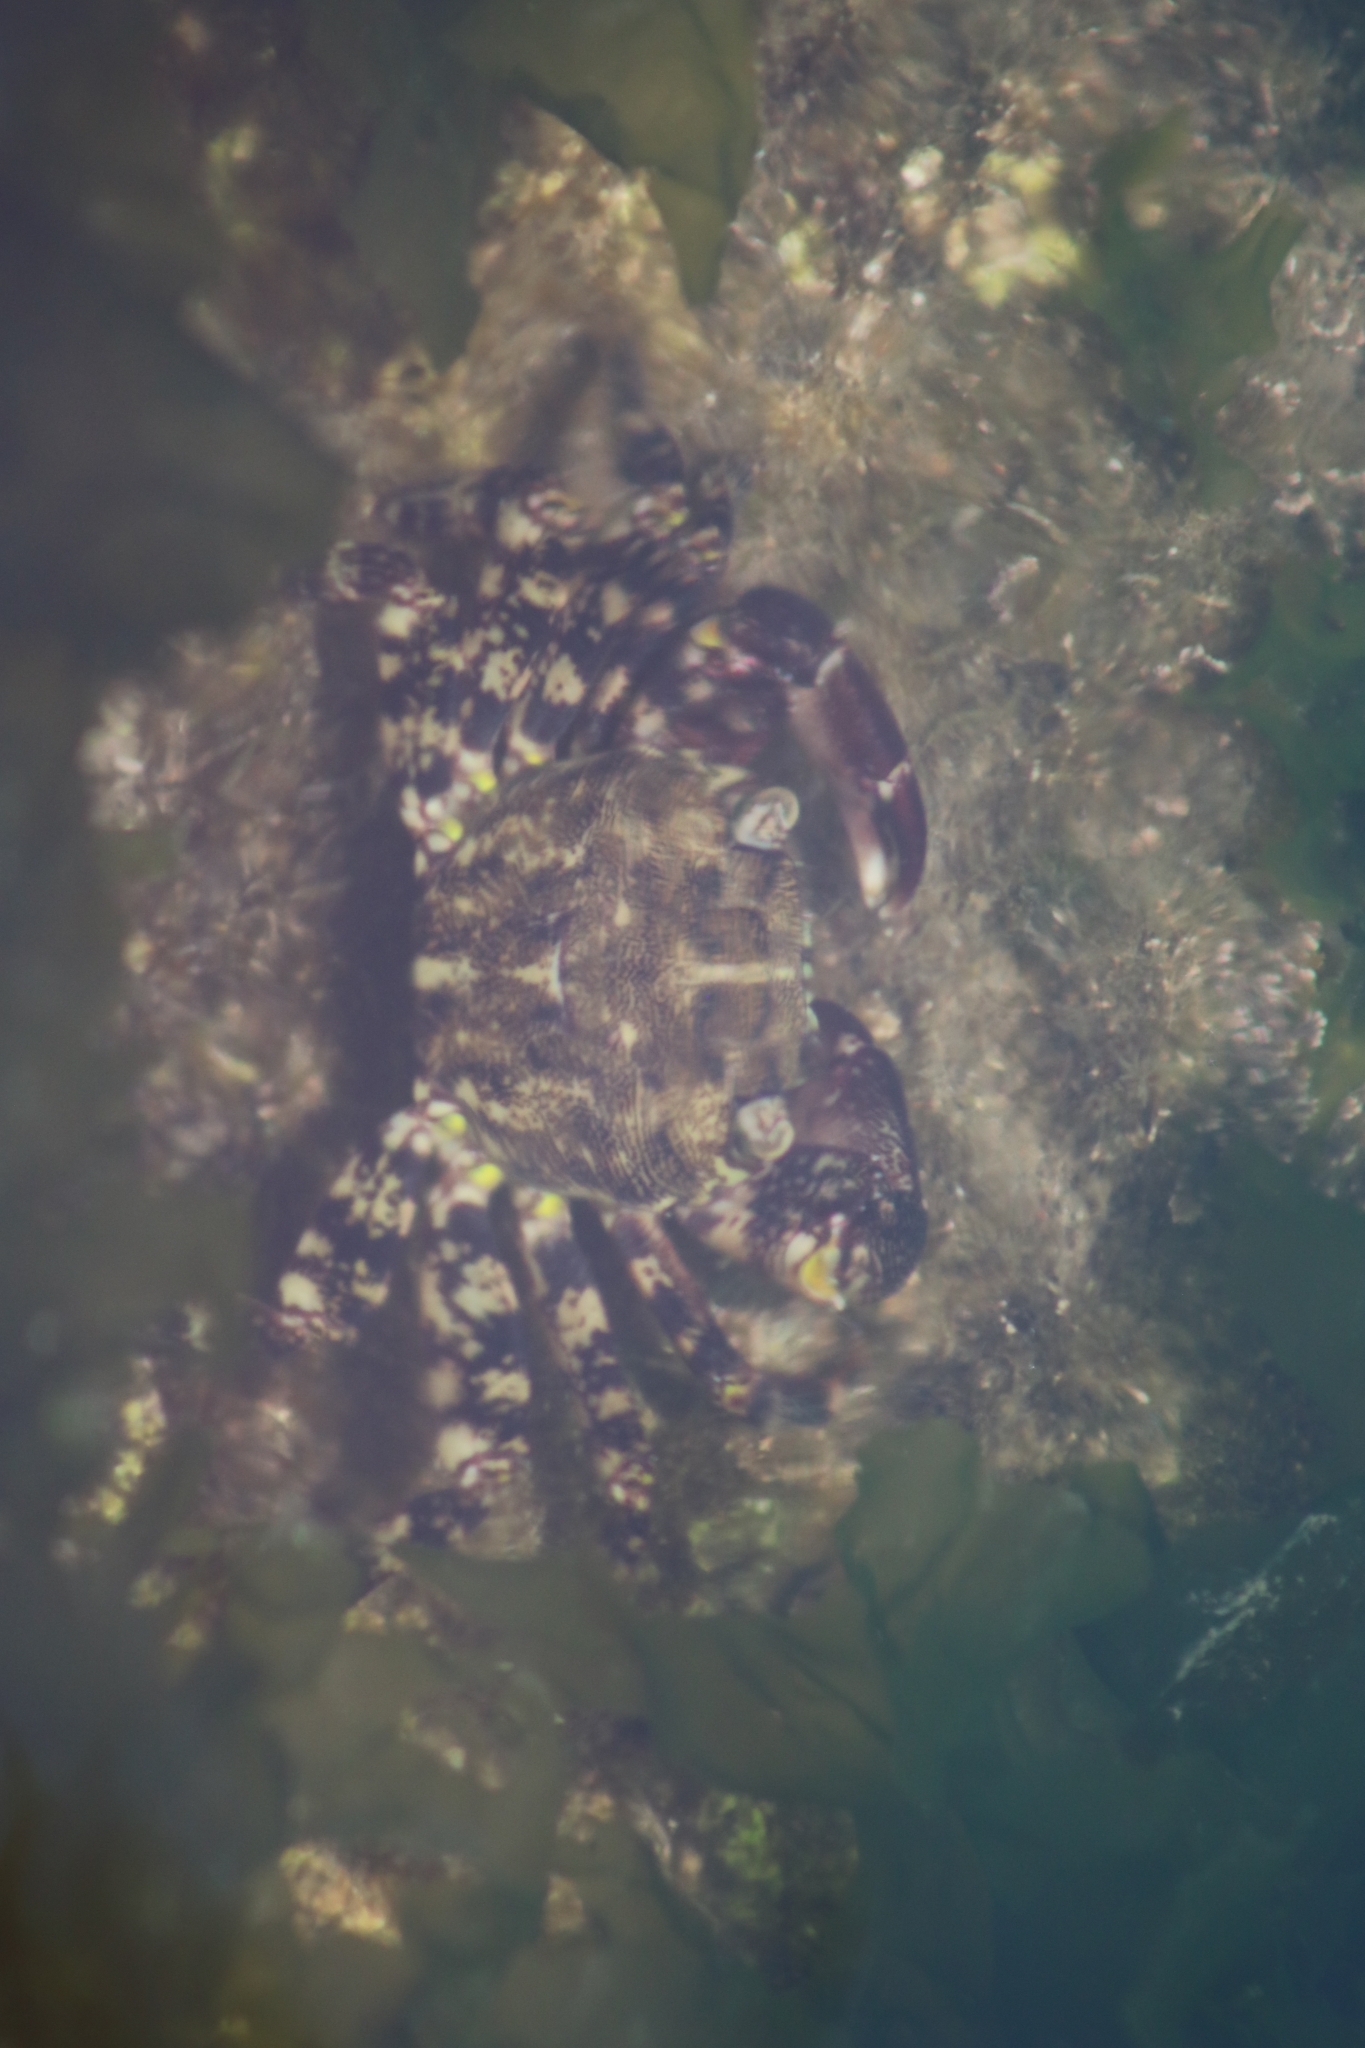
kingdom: Animalia
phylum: Arthropoda
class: Malacostraca
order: Decapoda
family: Grapsidae
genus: Pachygrapsus
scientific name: Pachygrapsus marmoratus
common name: Marbled rock crab
